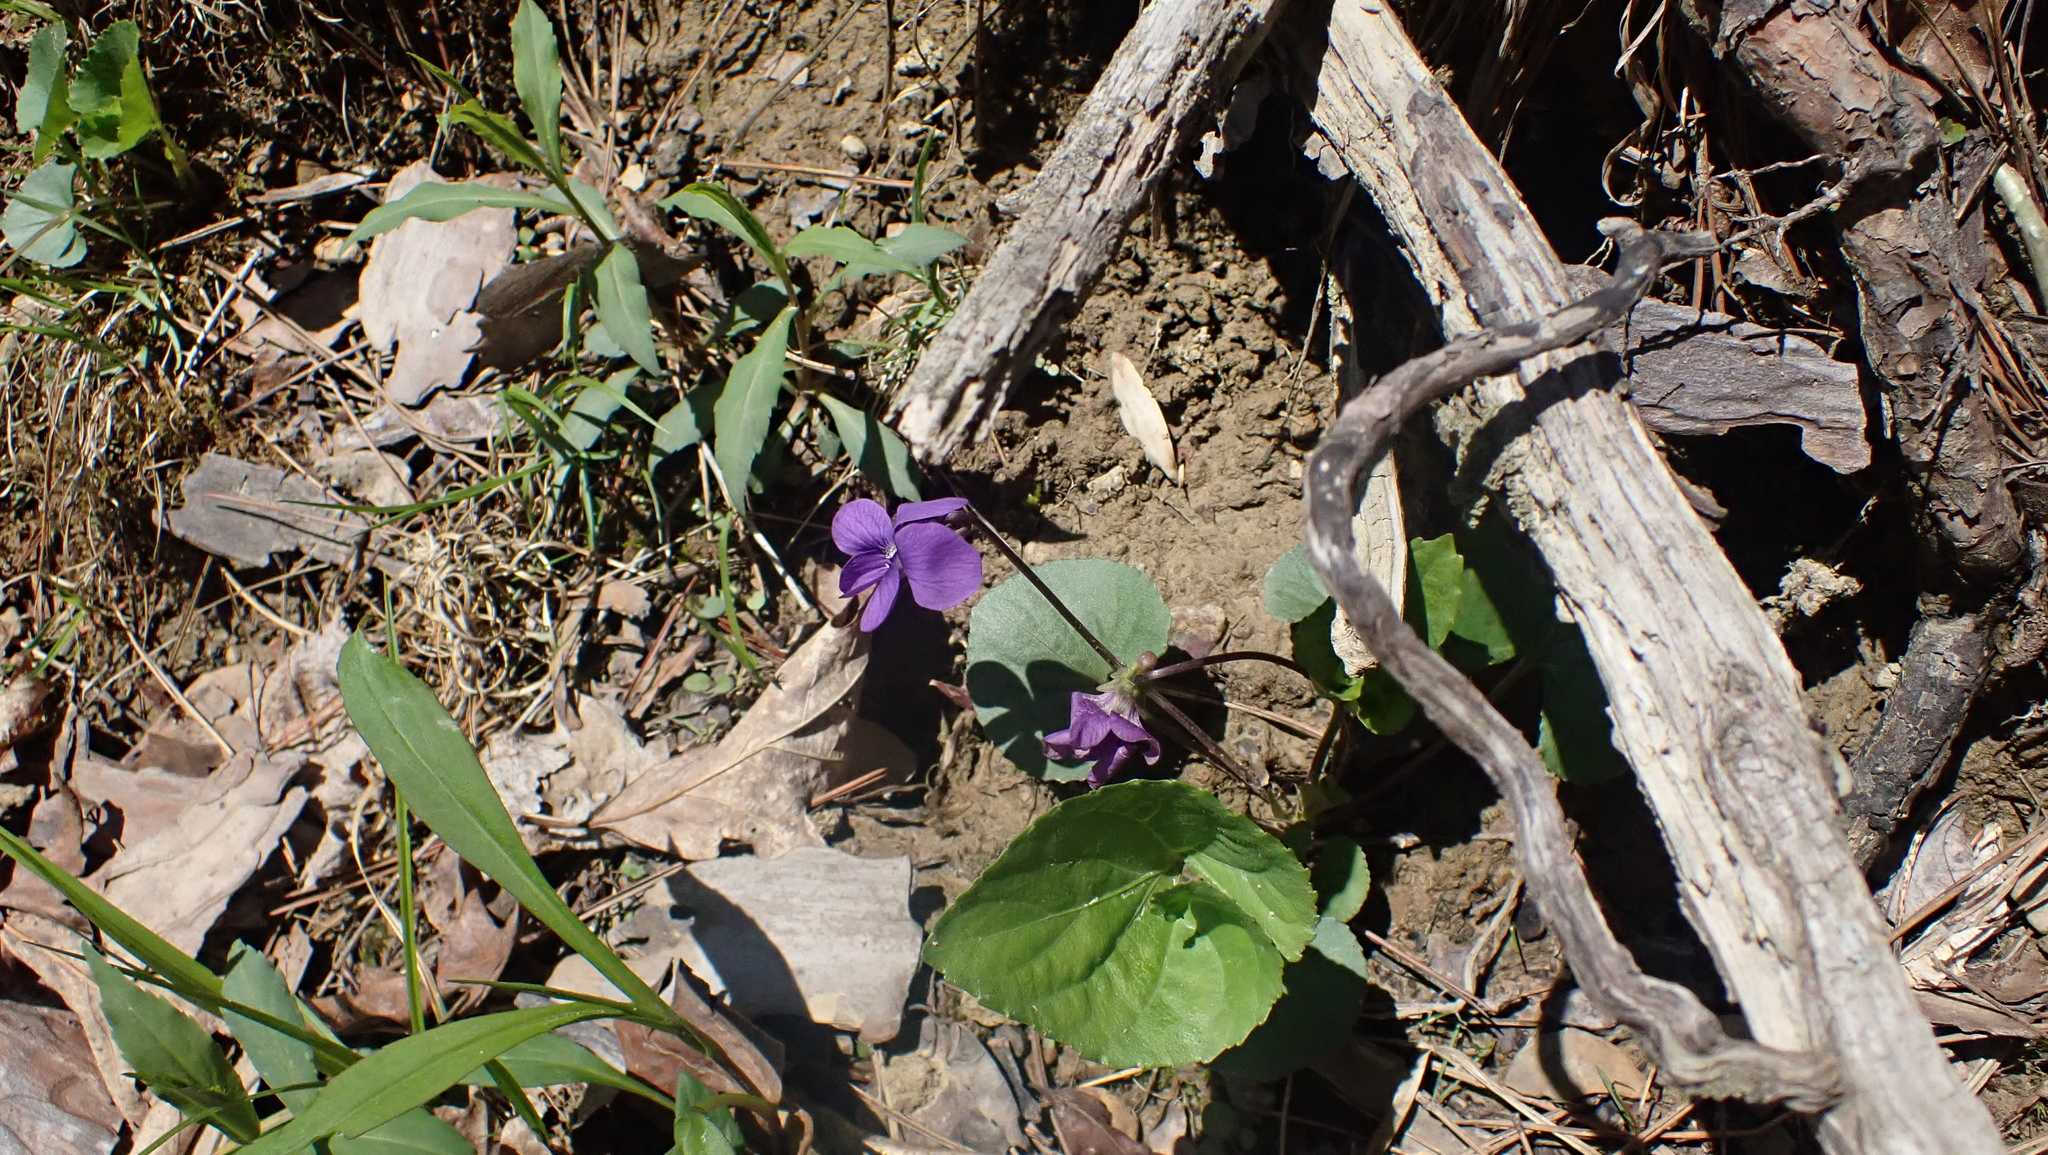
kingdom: Plantae
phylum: Tracheophyta
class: Magnoliopsida
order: Malpighiales
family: Violaceae
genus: Viola
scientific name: Viola sororia
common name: Dooryard violet
